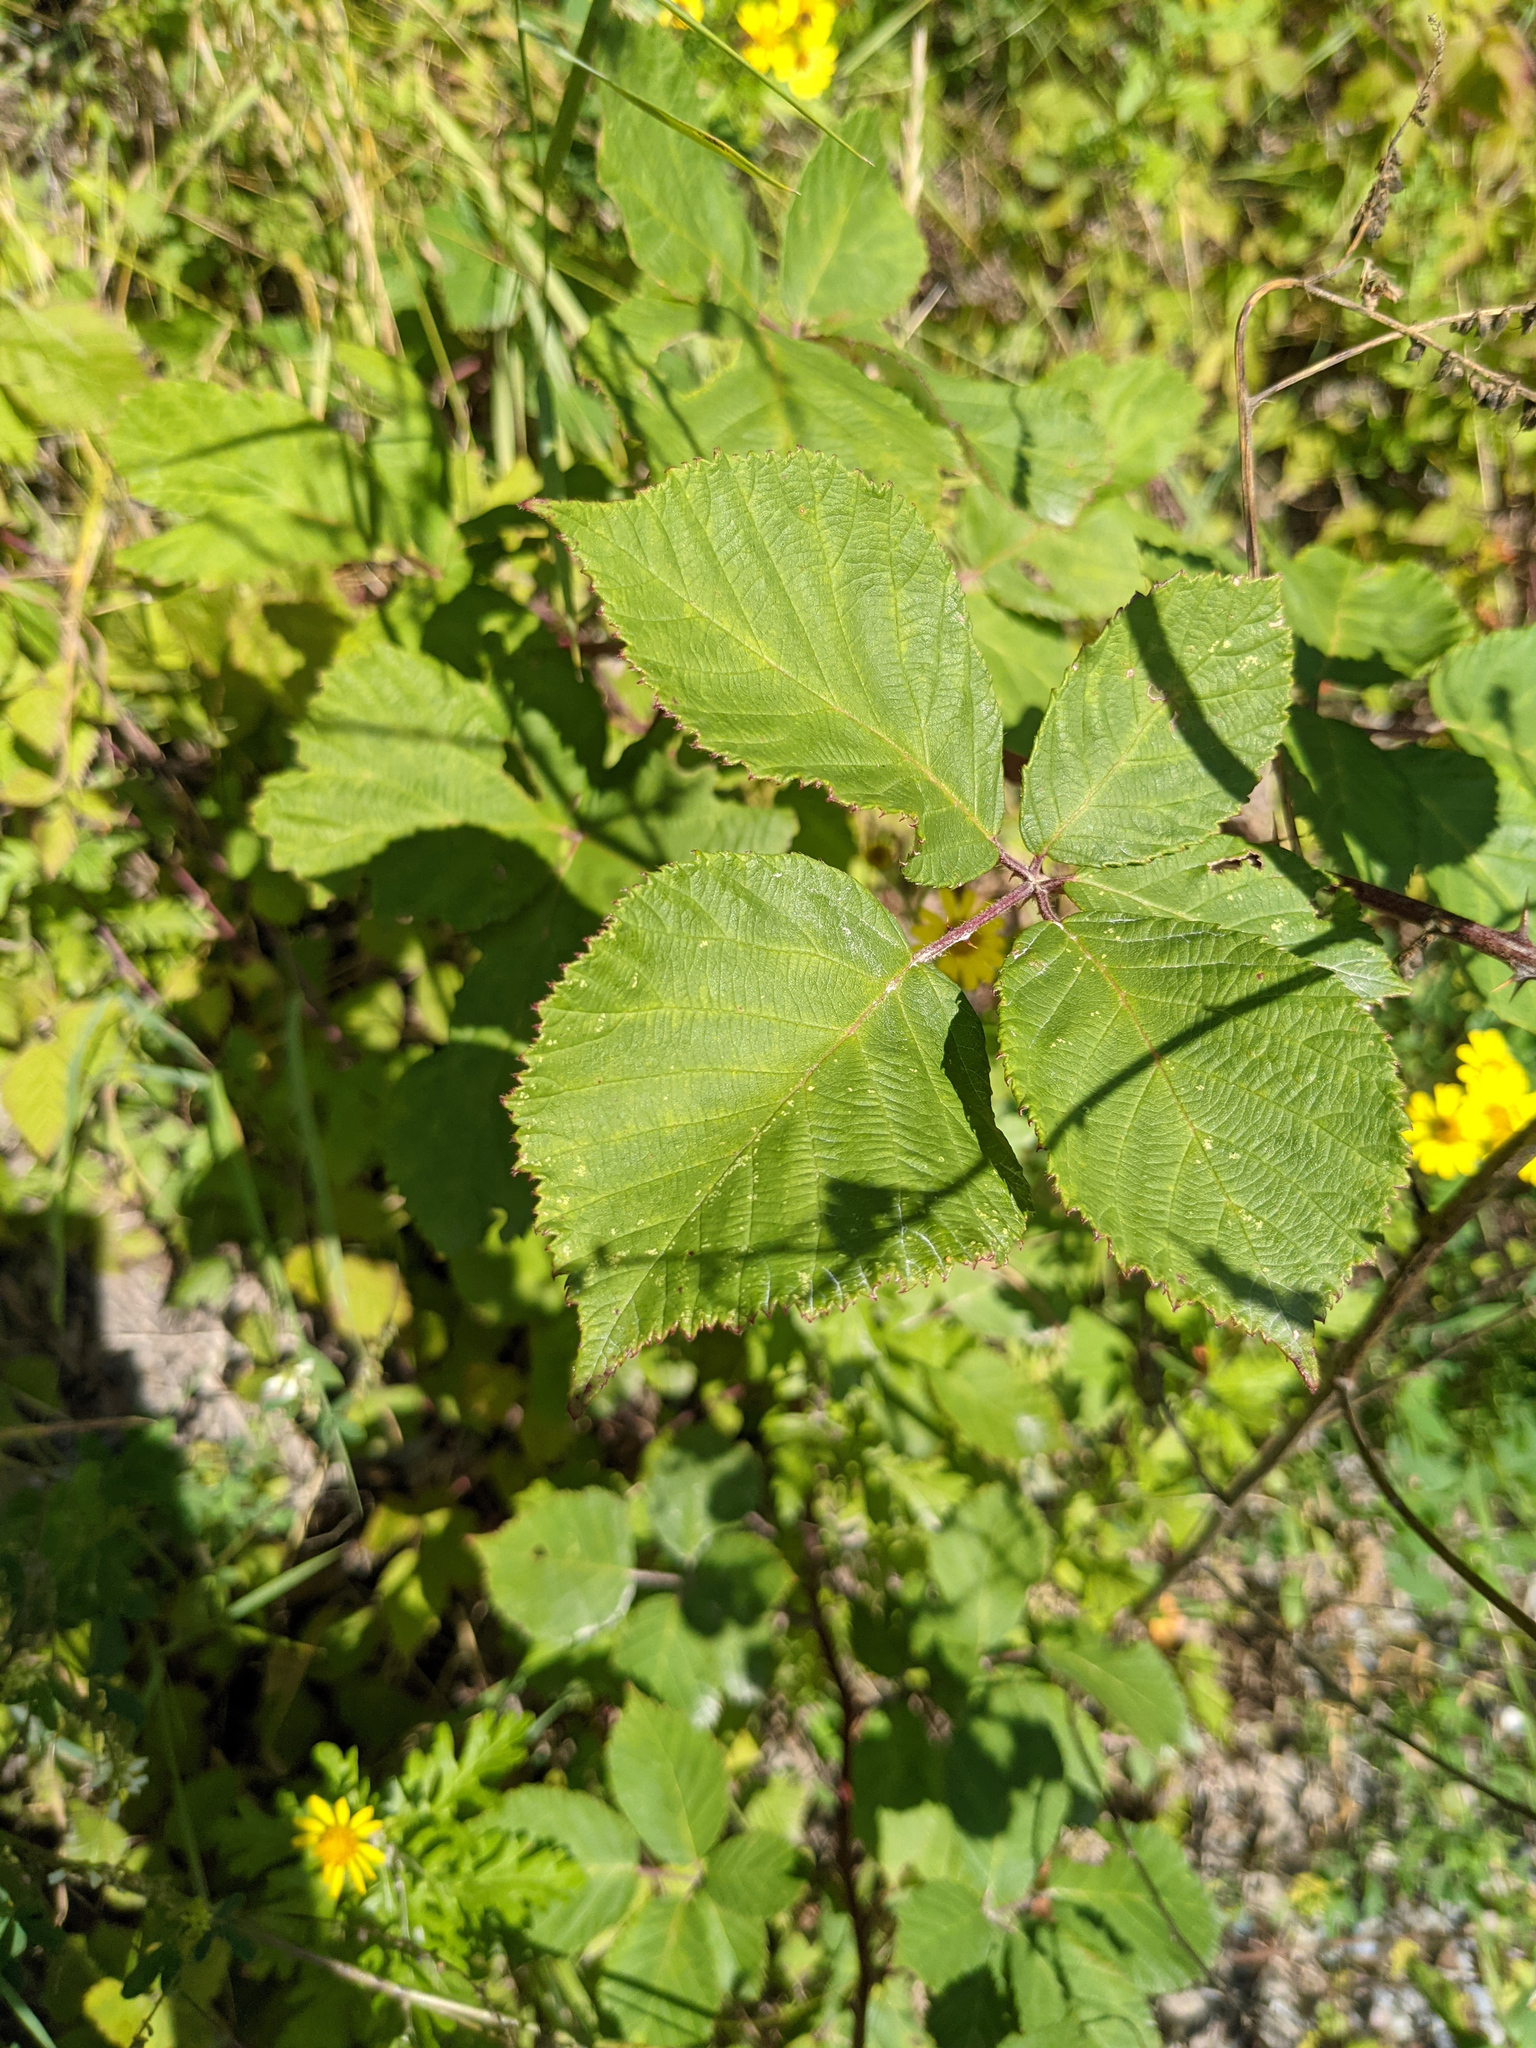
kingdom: Plantae
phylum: Tracheophyta
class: Magnoliopsida
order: Rosales
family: Rosaceae
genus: Rubus
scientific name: Rubus
